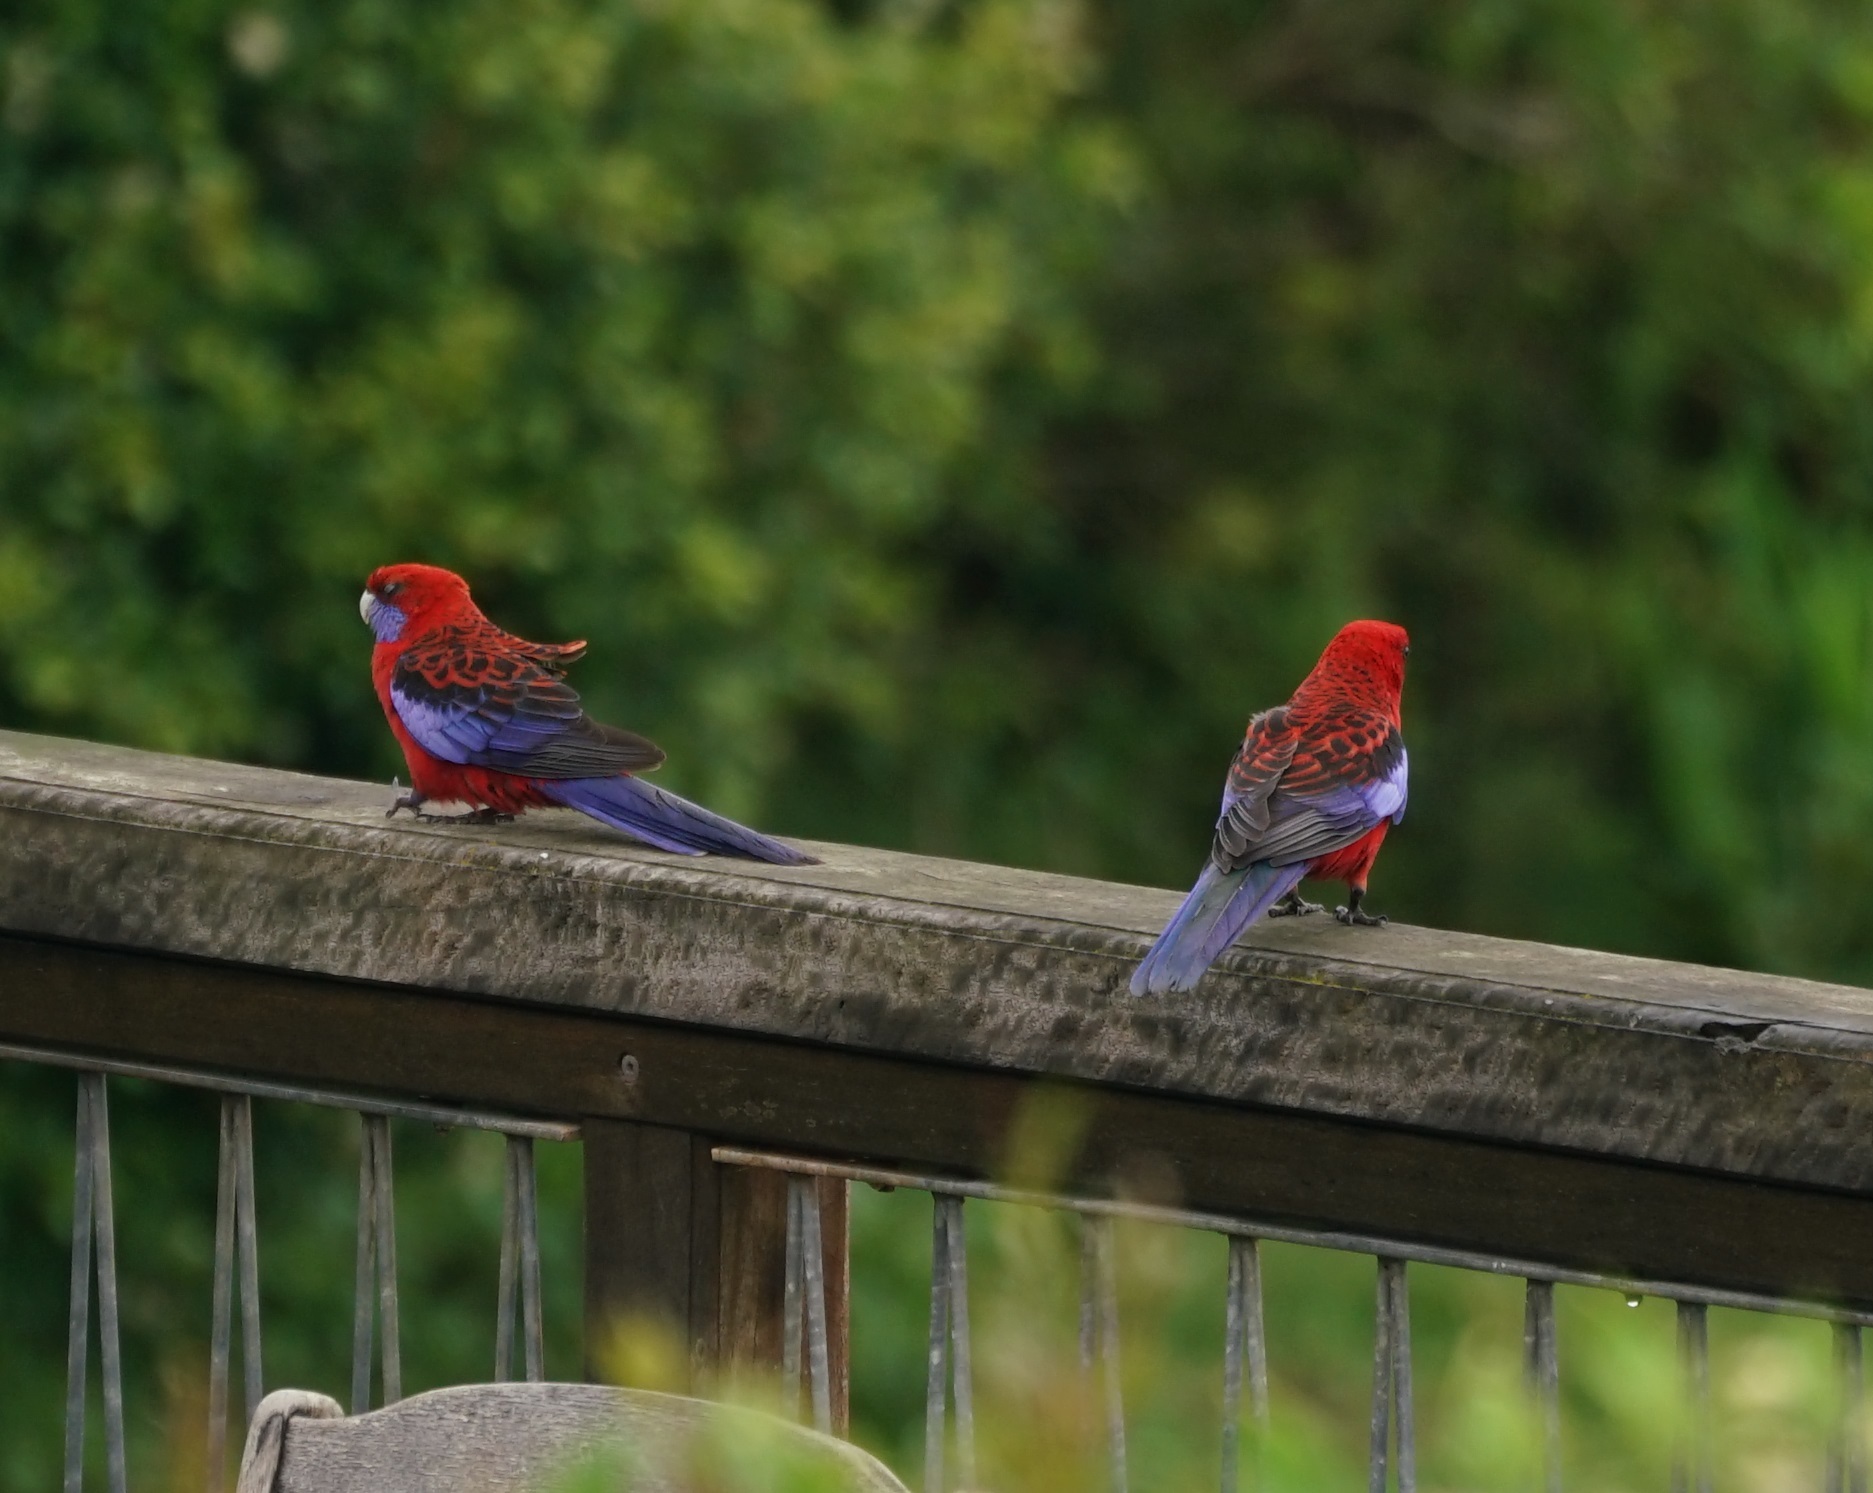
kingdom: Animalia
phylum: Chordata
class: Aves
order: Psittaciformes
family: Psittacidae
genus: Platycercus
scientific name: Platycercus elegans
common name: Crimson rosella
